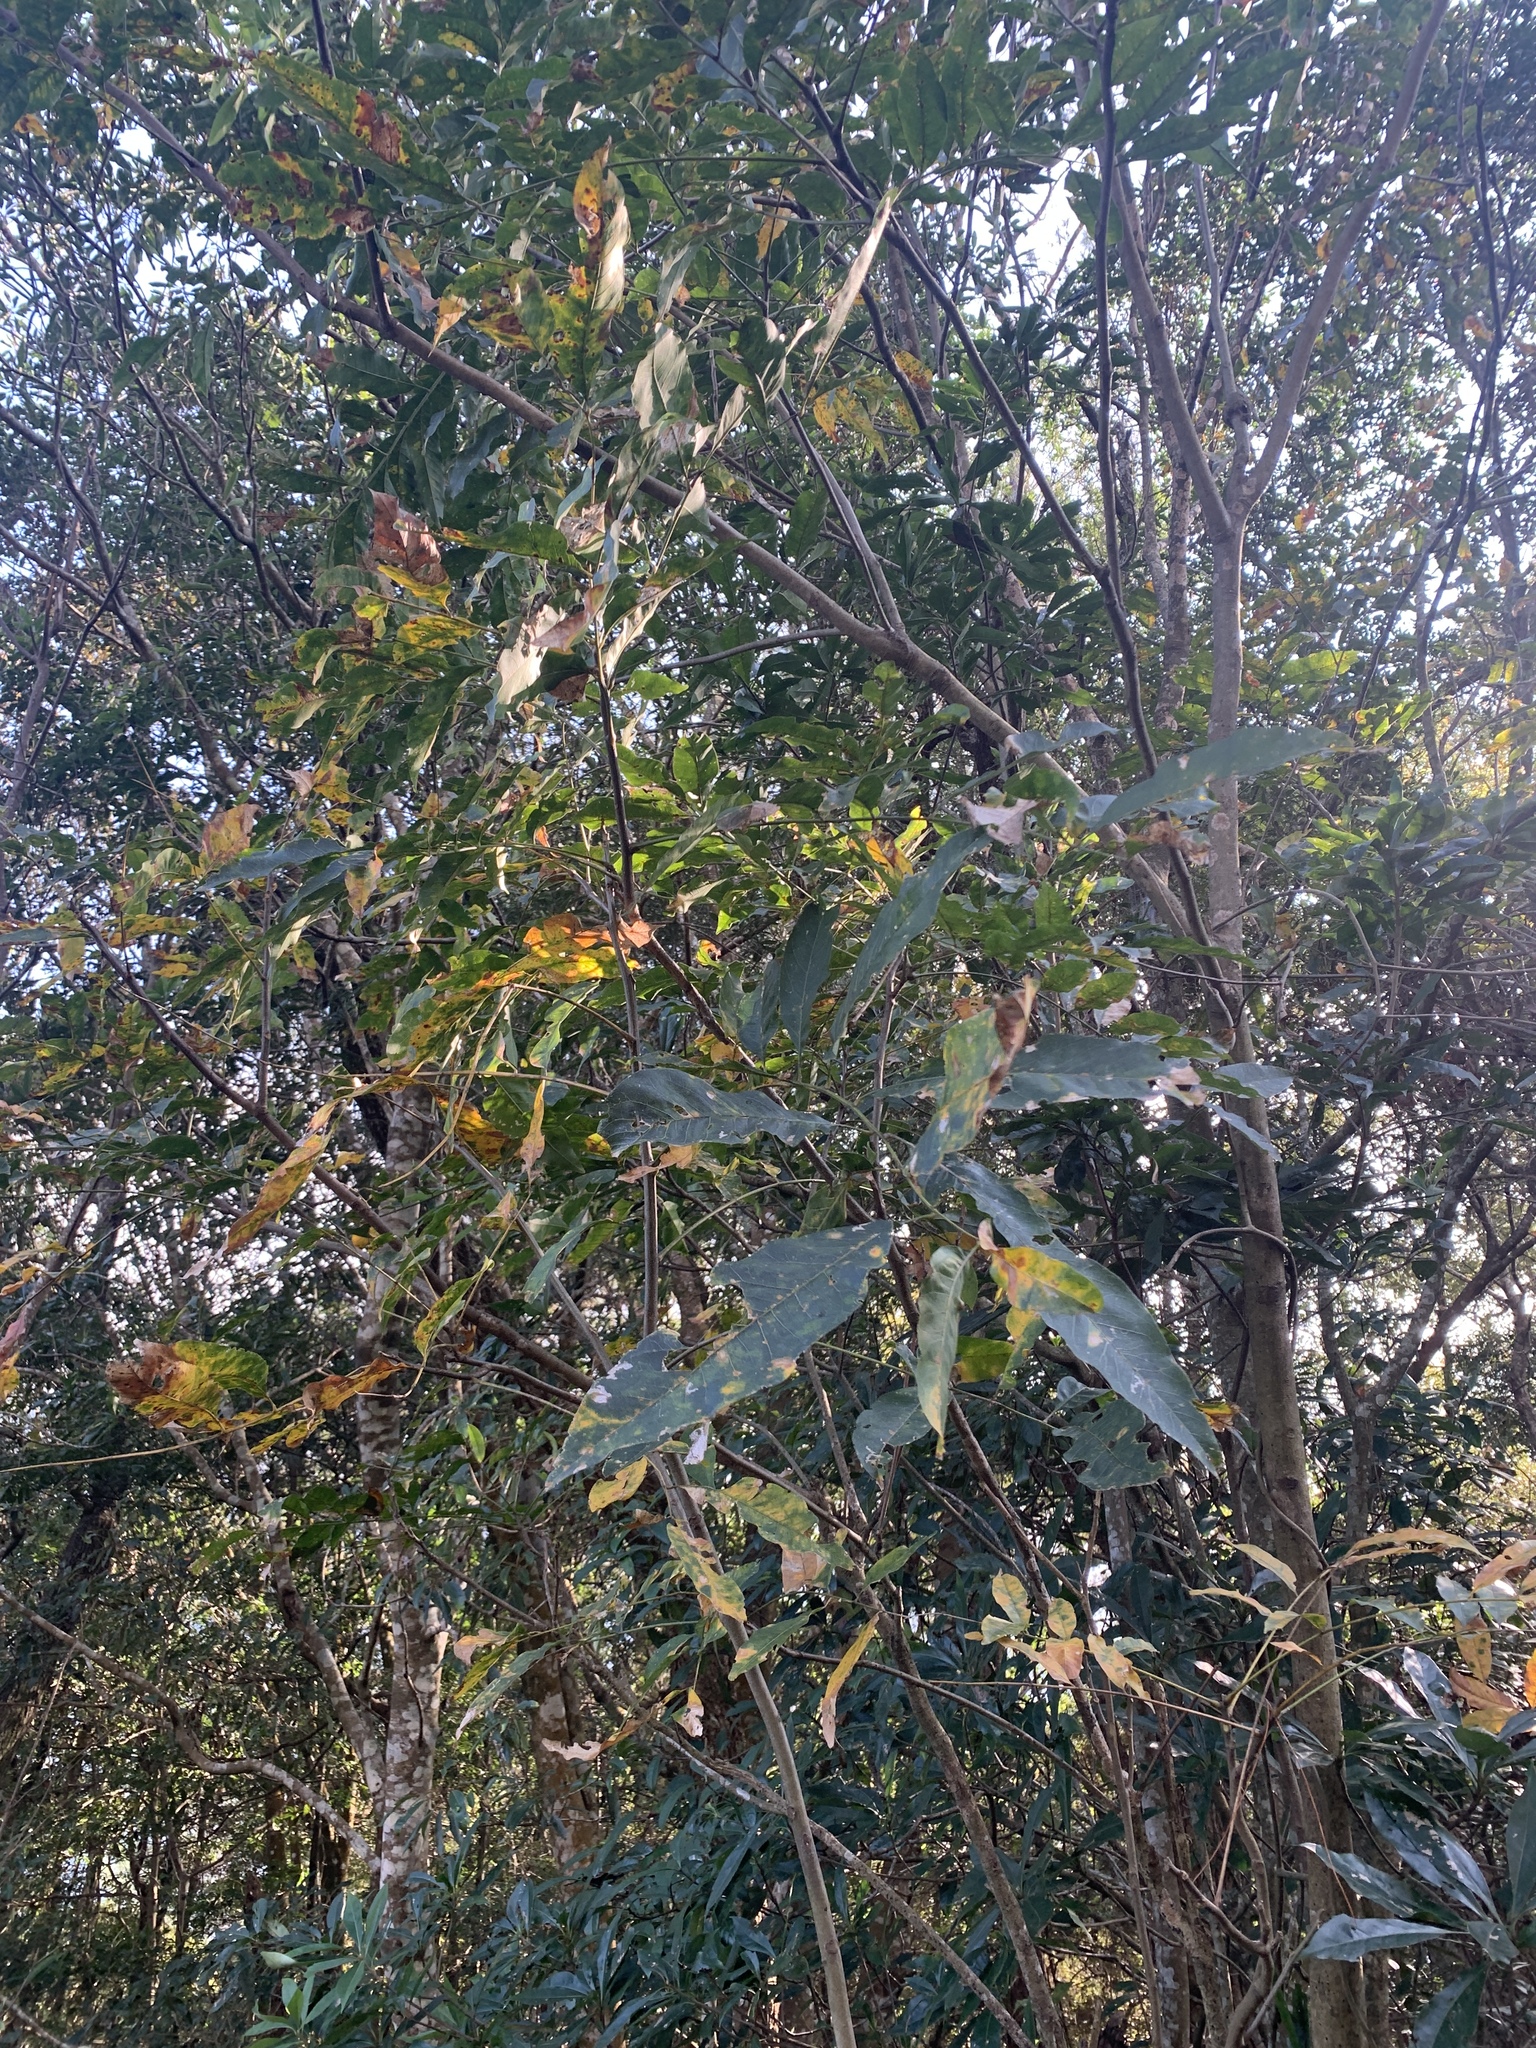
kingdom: Plantae
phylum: Tracheophyta
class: Magnoliopsida
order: Sapindales
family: Sapindaceae
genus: Sapindus
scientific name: Sapindus mukorossi
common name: Chinese soapberry
